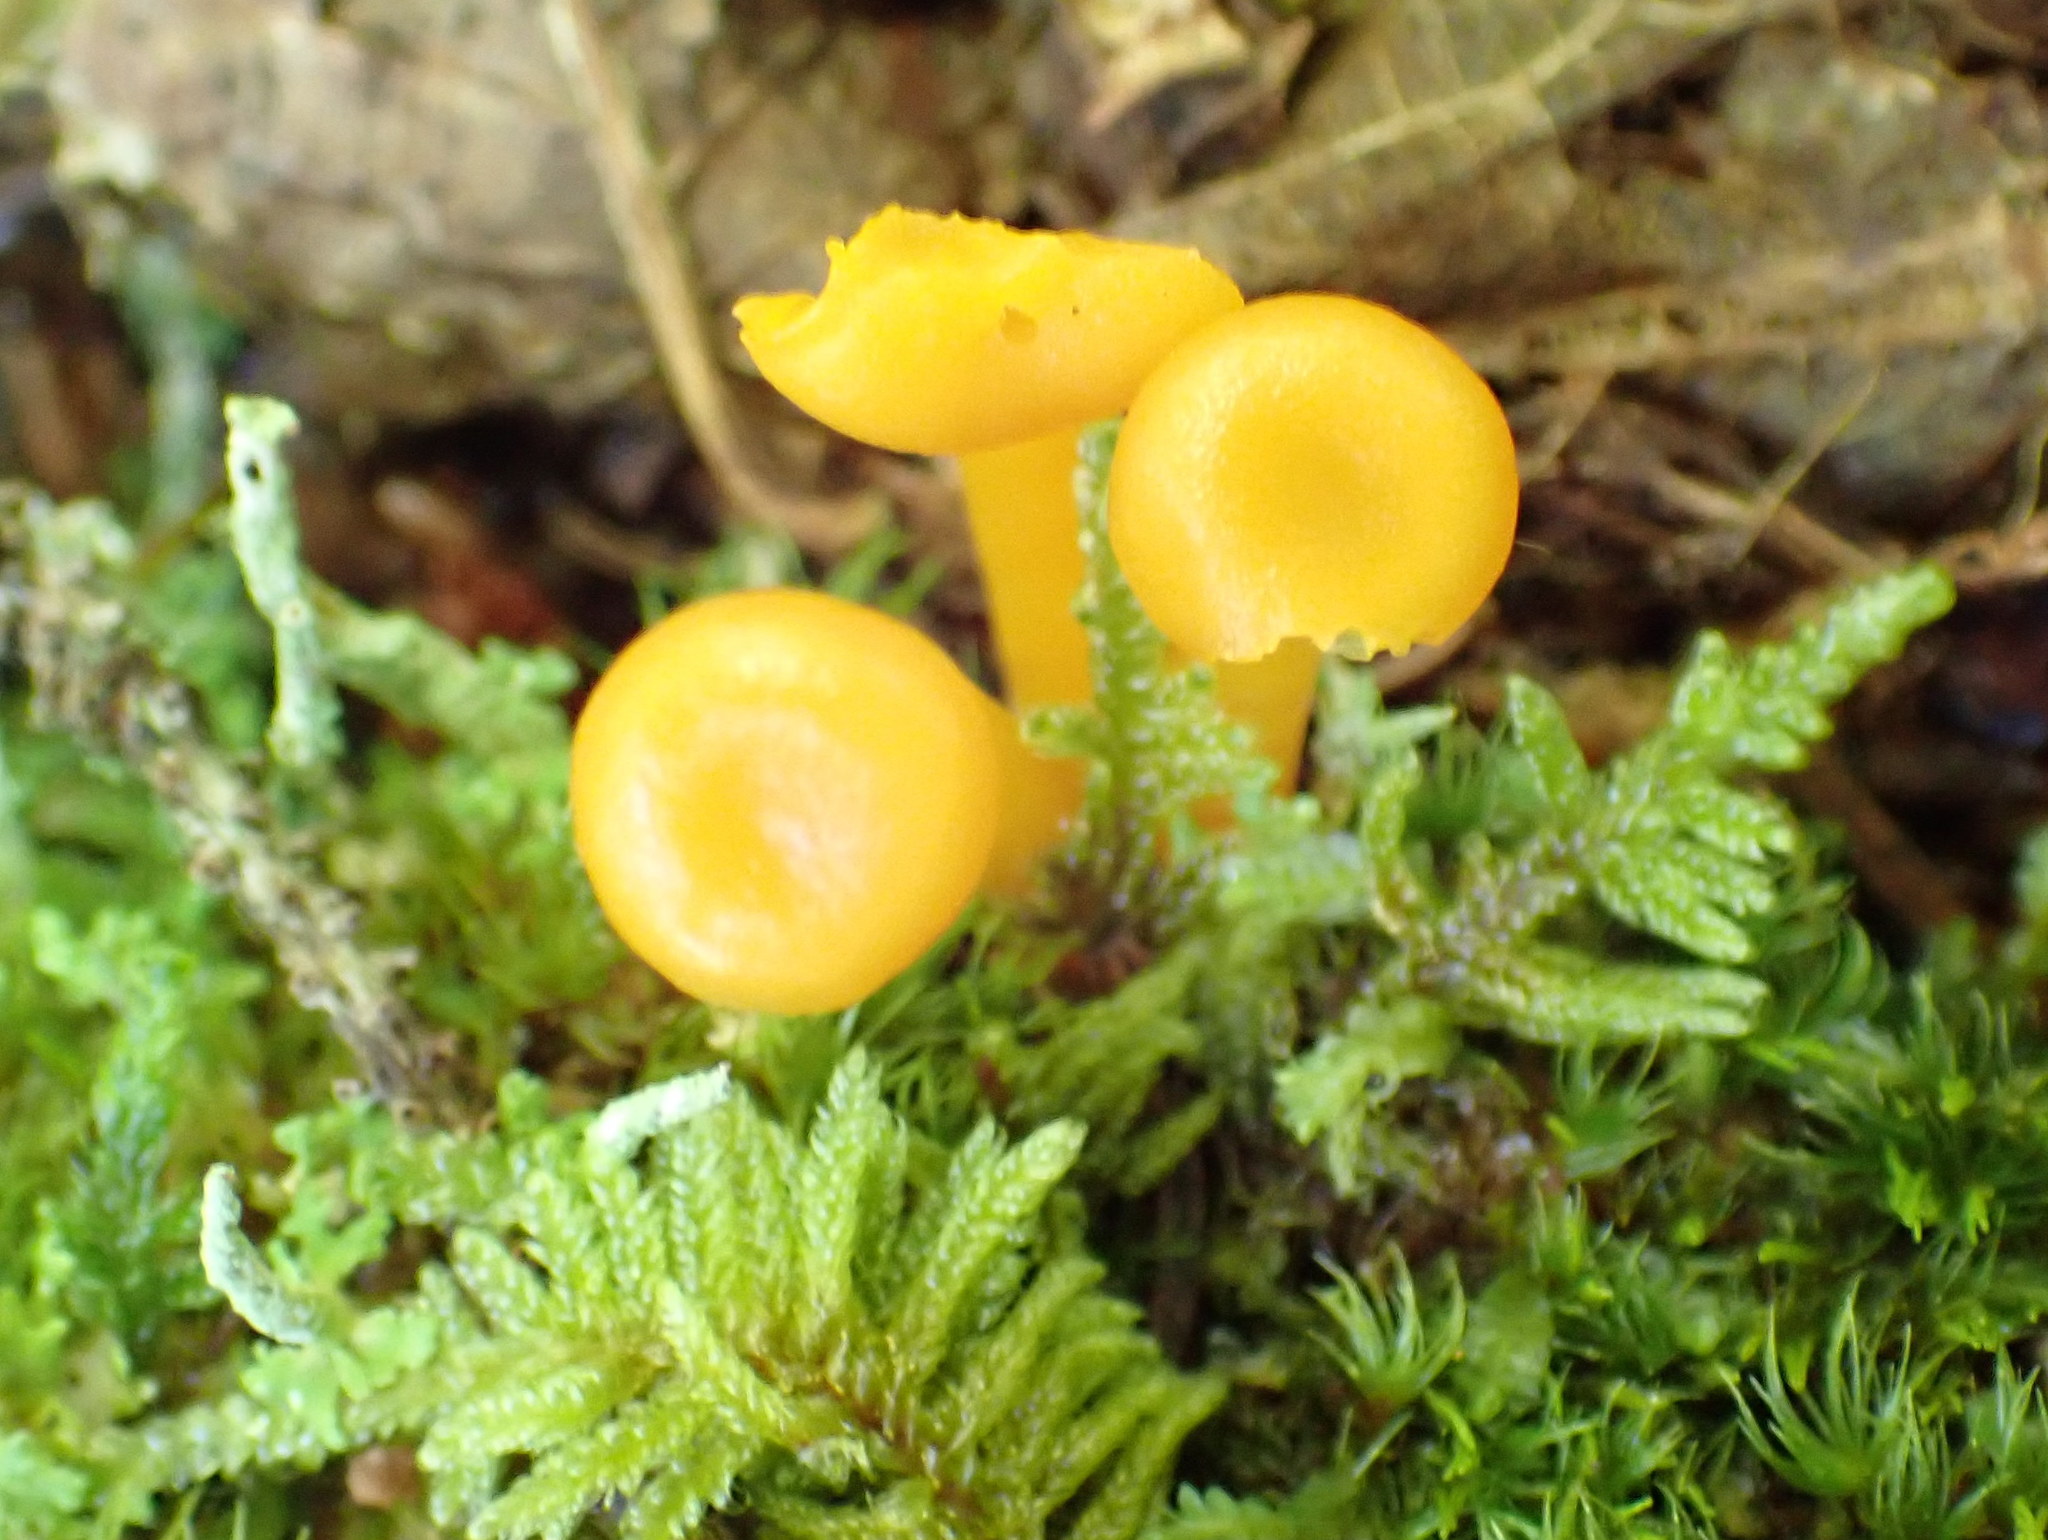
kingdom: Fungi
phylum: Basidiomycota
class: Agaricomycetes
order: Agaricales
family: Hygrophoraceae
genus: Gloioxanthomyces
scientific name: Gloioxanthomyces nitidus
